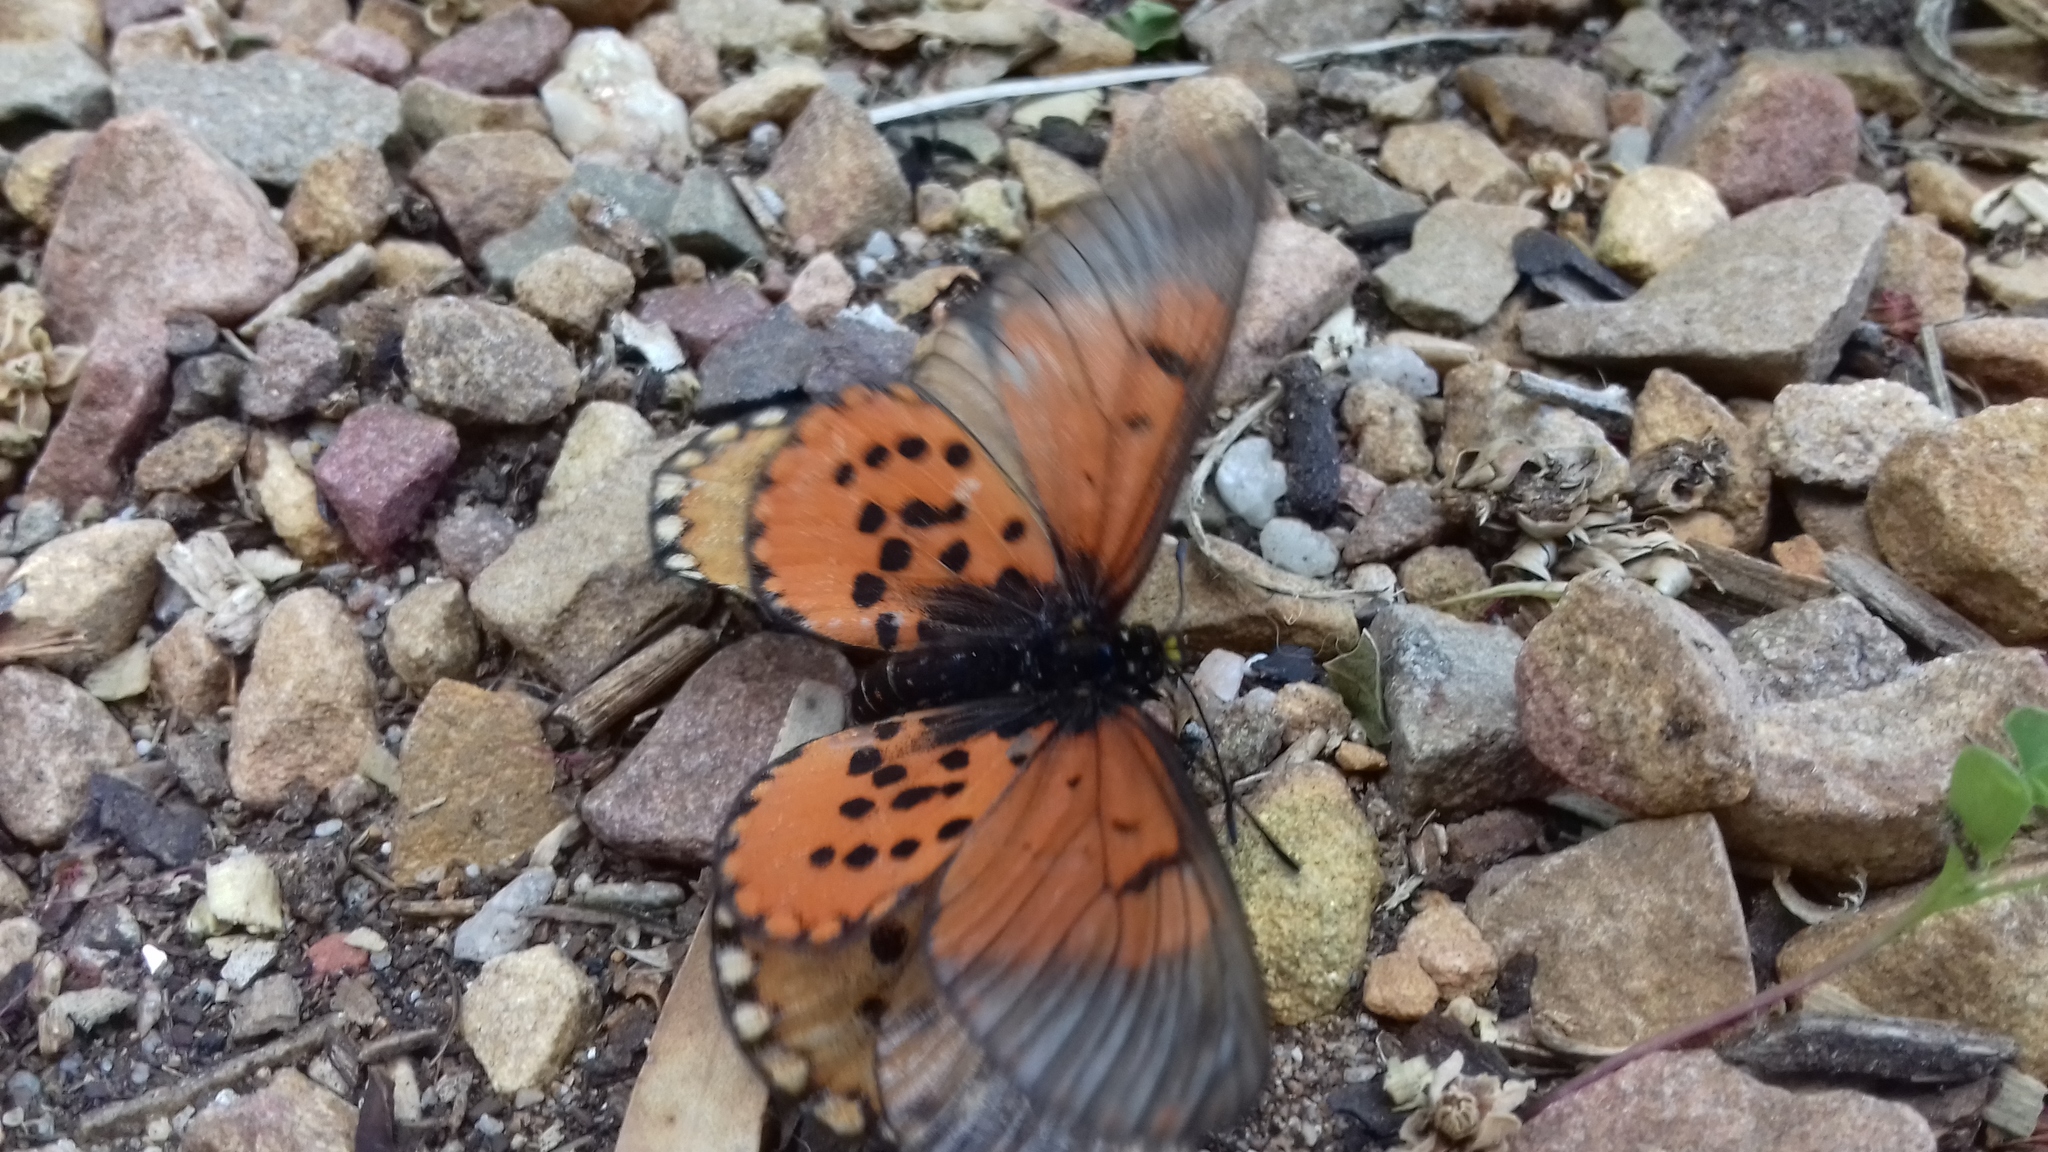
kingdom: Animalia
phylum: Arthropoda
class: Insecta
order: Lepidoptera
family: Nymphalidae
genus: Acraea
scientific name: Acraea horta
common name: Garden acraea
